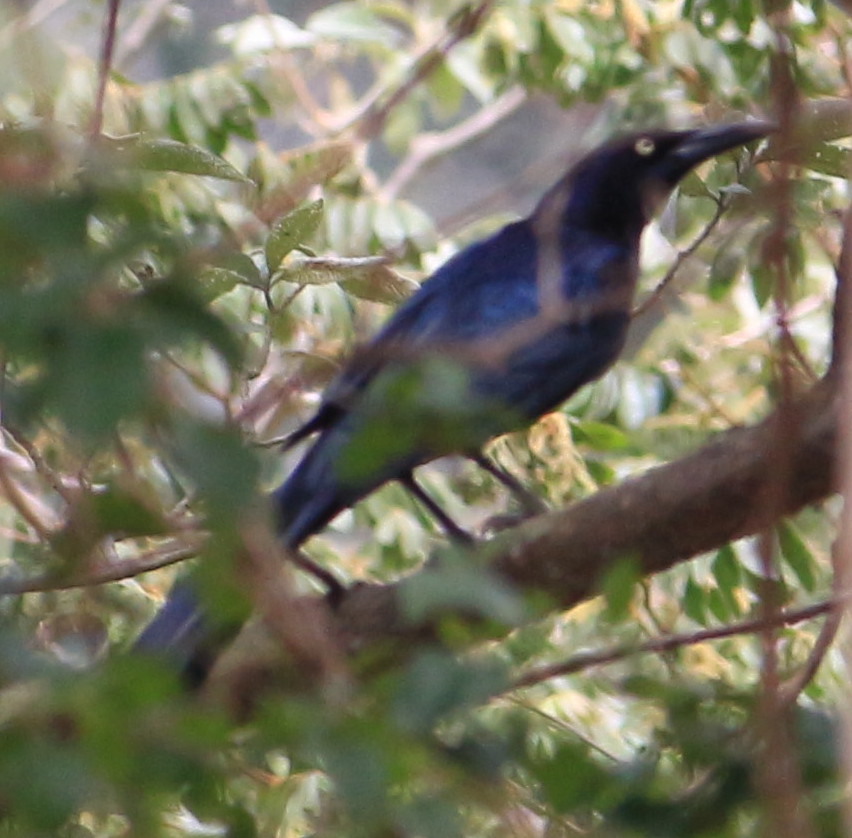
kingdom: Animalia
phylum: Chordata
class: Aves
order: Passeriformes
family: Icteridae
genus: Quiscalus
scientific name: Quiscalus mexicanus
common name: Great-tailed grackle
